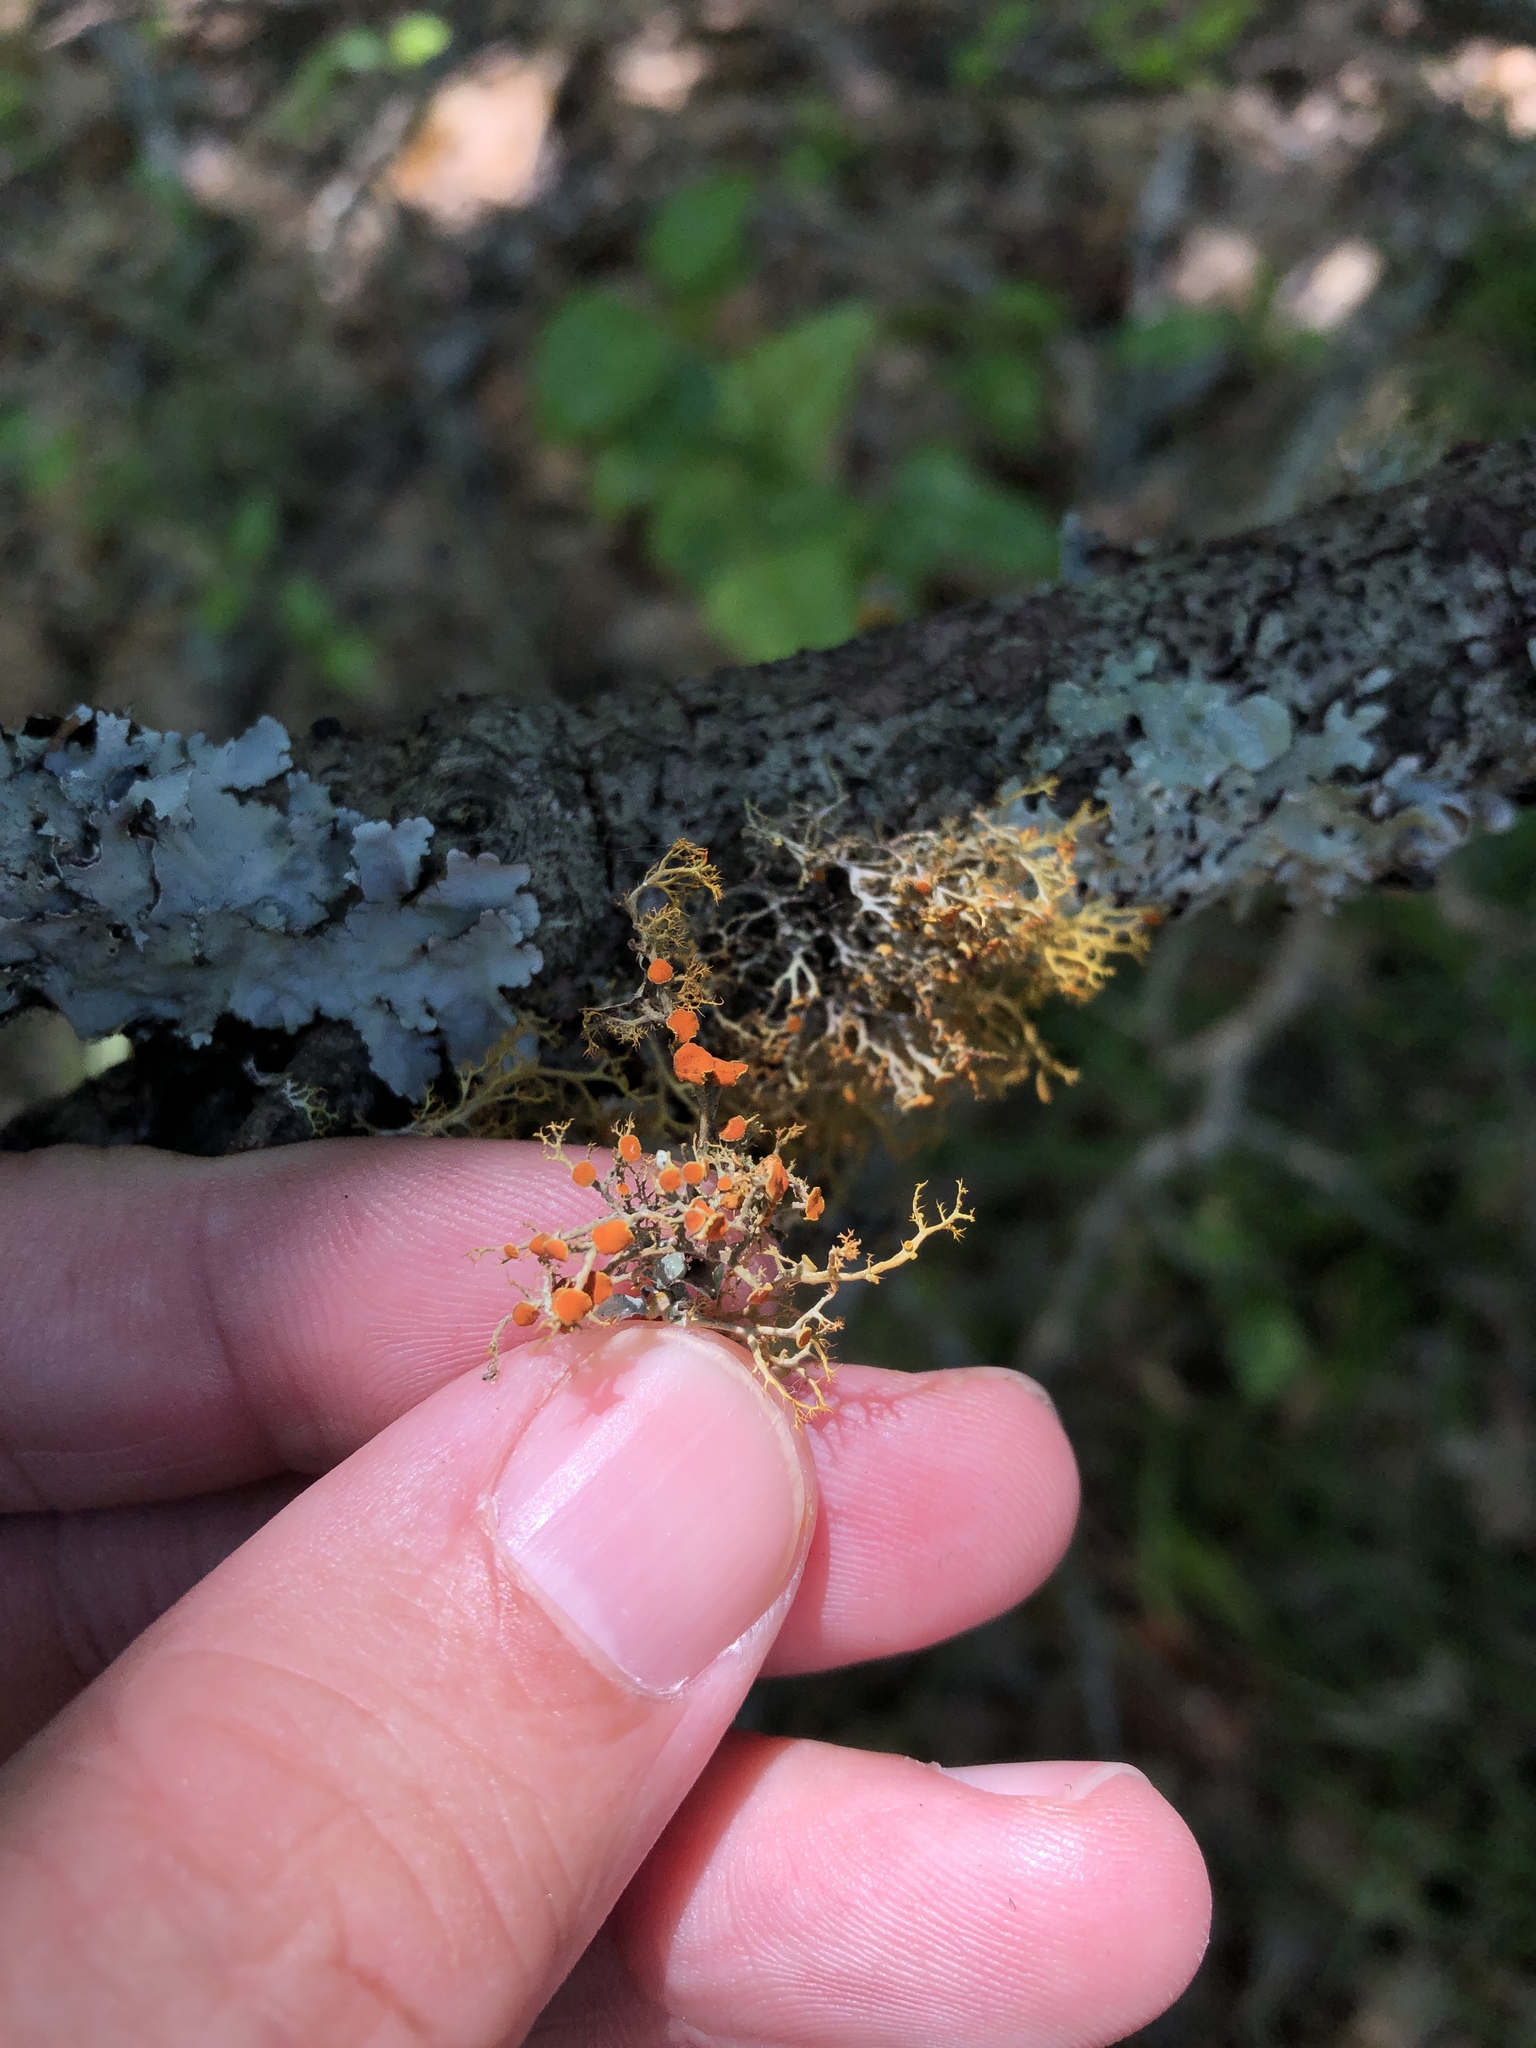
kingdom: Fungi
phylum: Ascomycota
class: Lecanoromycetes
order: Teloschistales
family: Teloschistaceae
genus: Teloschistes
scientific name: Teloschistes exilis
